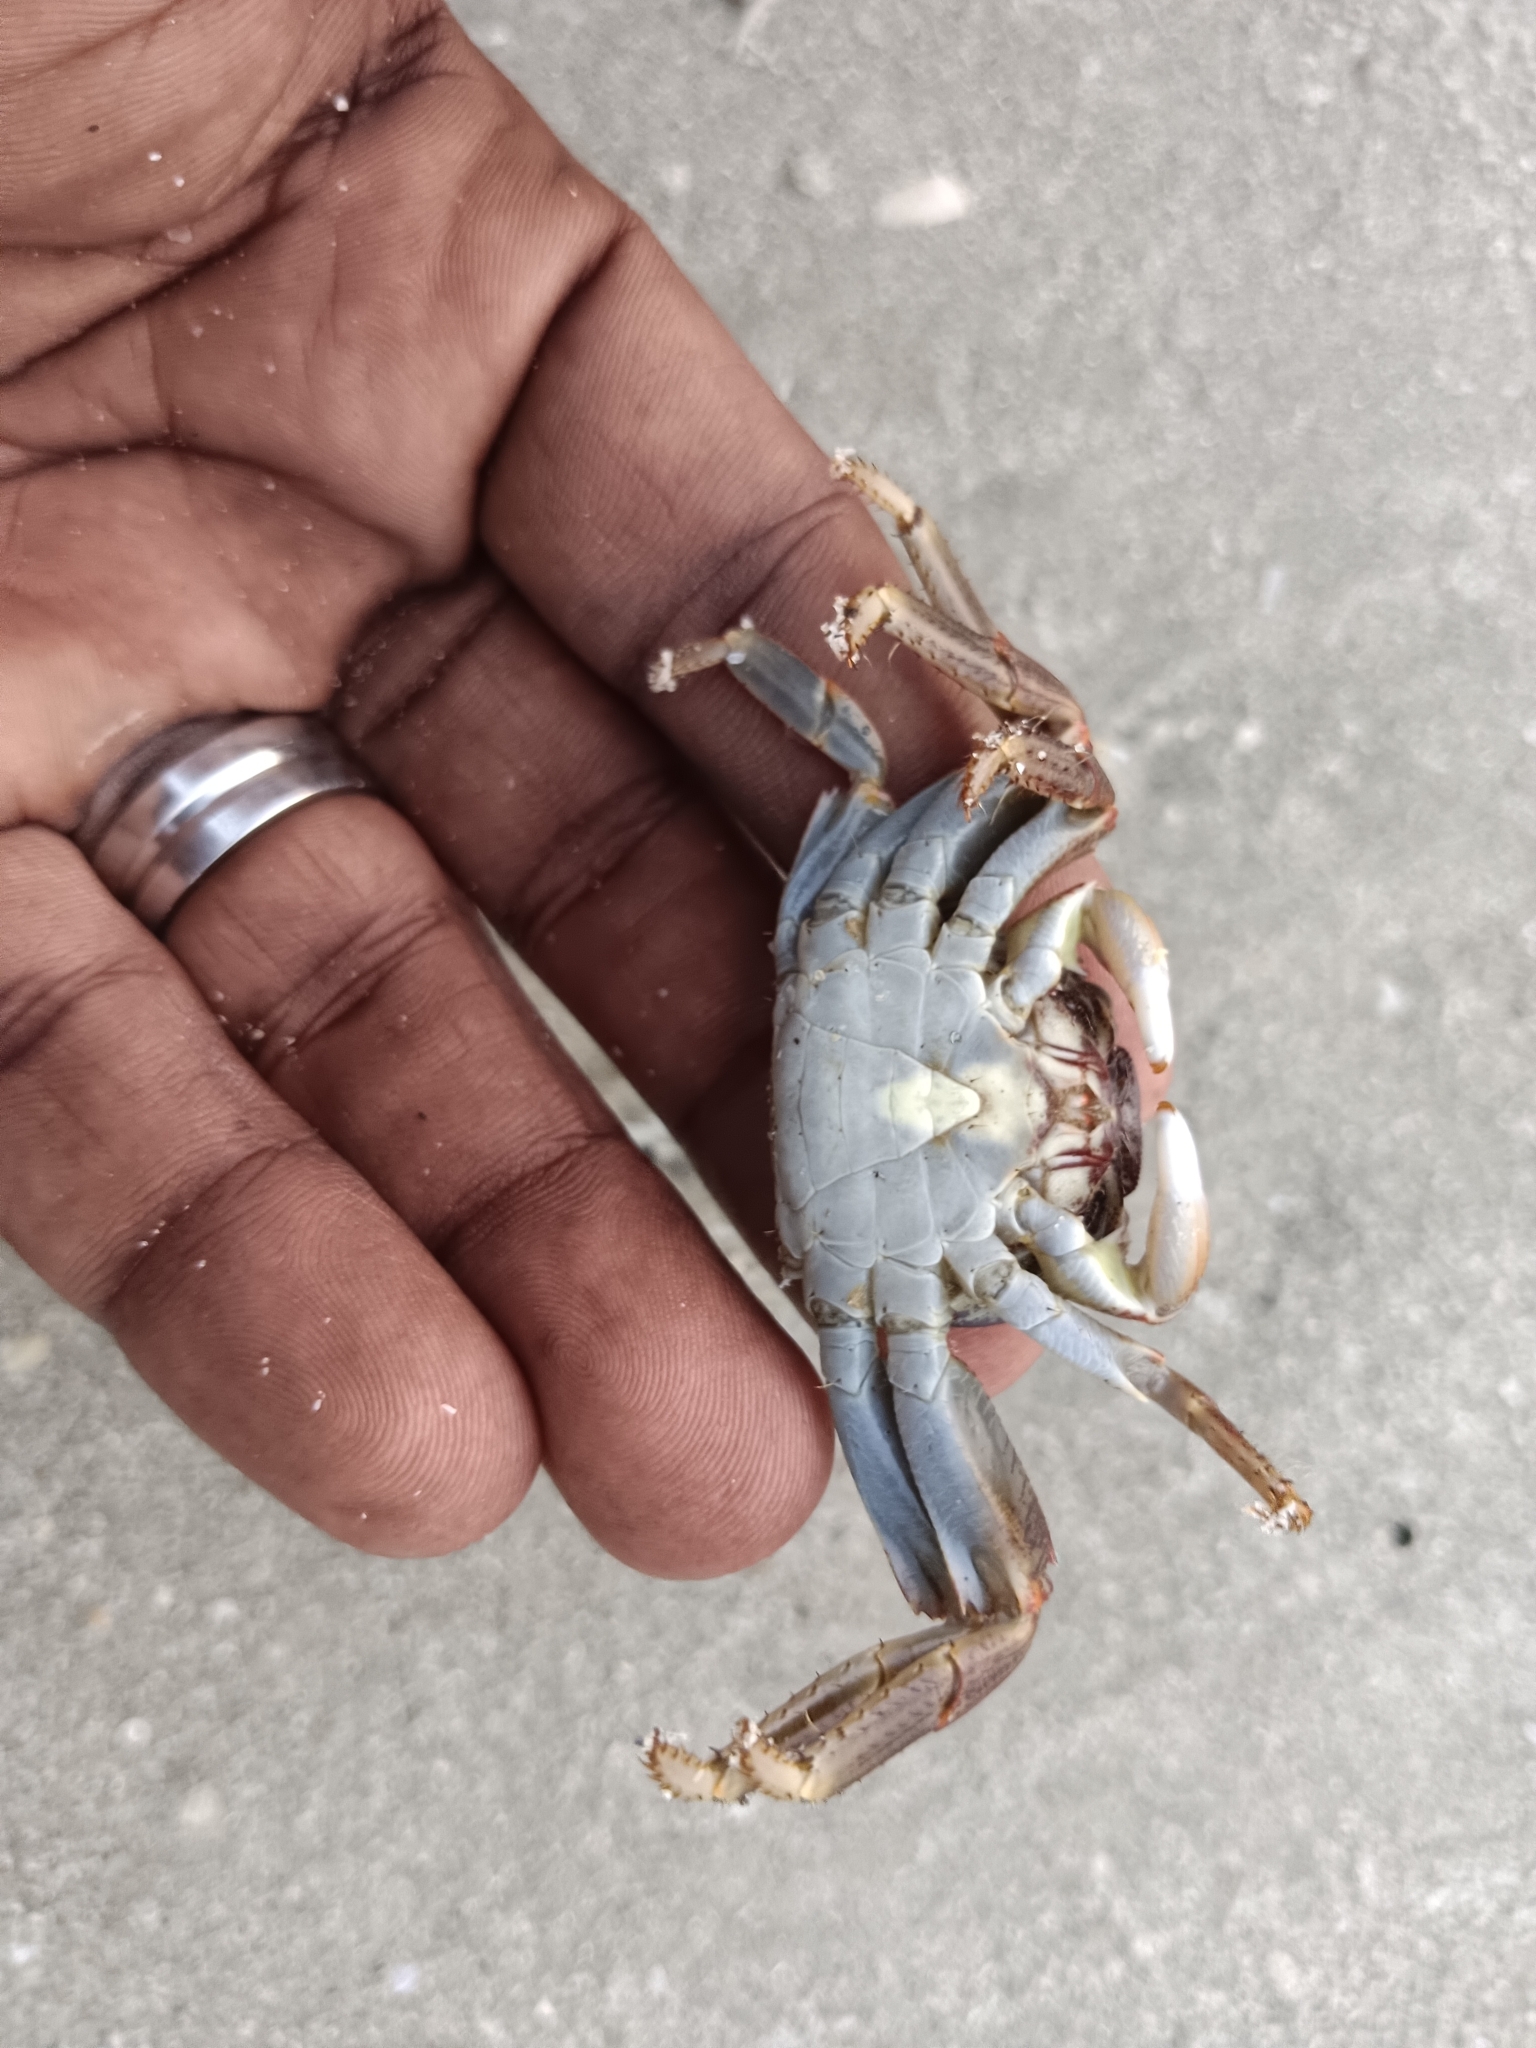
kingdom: Animalia
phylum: Arthropoda
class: Malacostraca
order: Decapoda
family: Grapsidae
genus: Grapsus
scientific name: Grapsus albolineatus
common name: Mottled lightfoot crab
